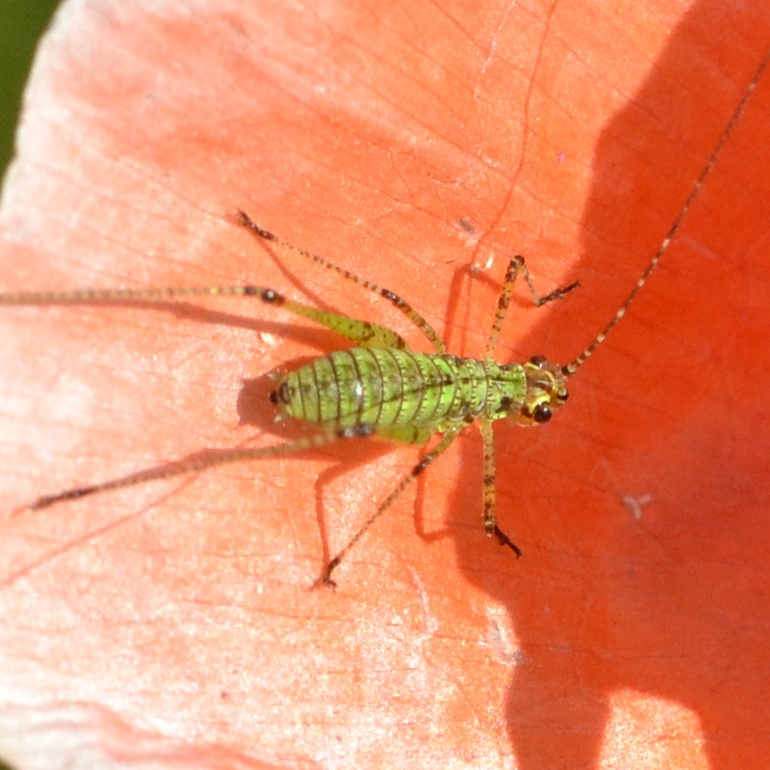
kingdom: Animalia
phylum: Arthropoda
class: Insecta
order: Orthoptera
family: Tettigoniidae
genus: Phaneroptera
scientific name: Phaneroptera nana
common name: Southern sickle bush-cricket
